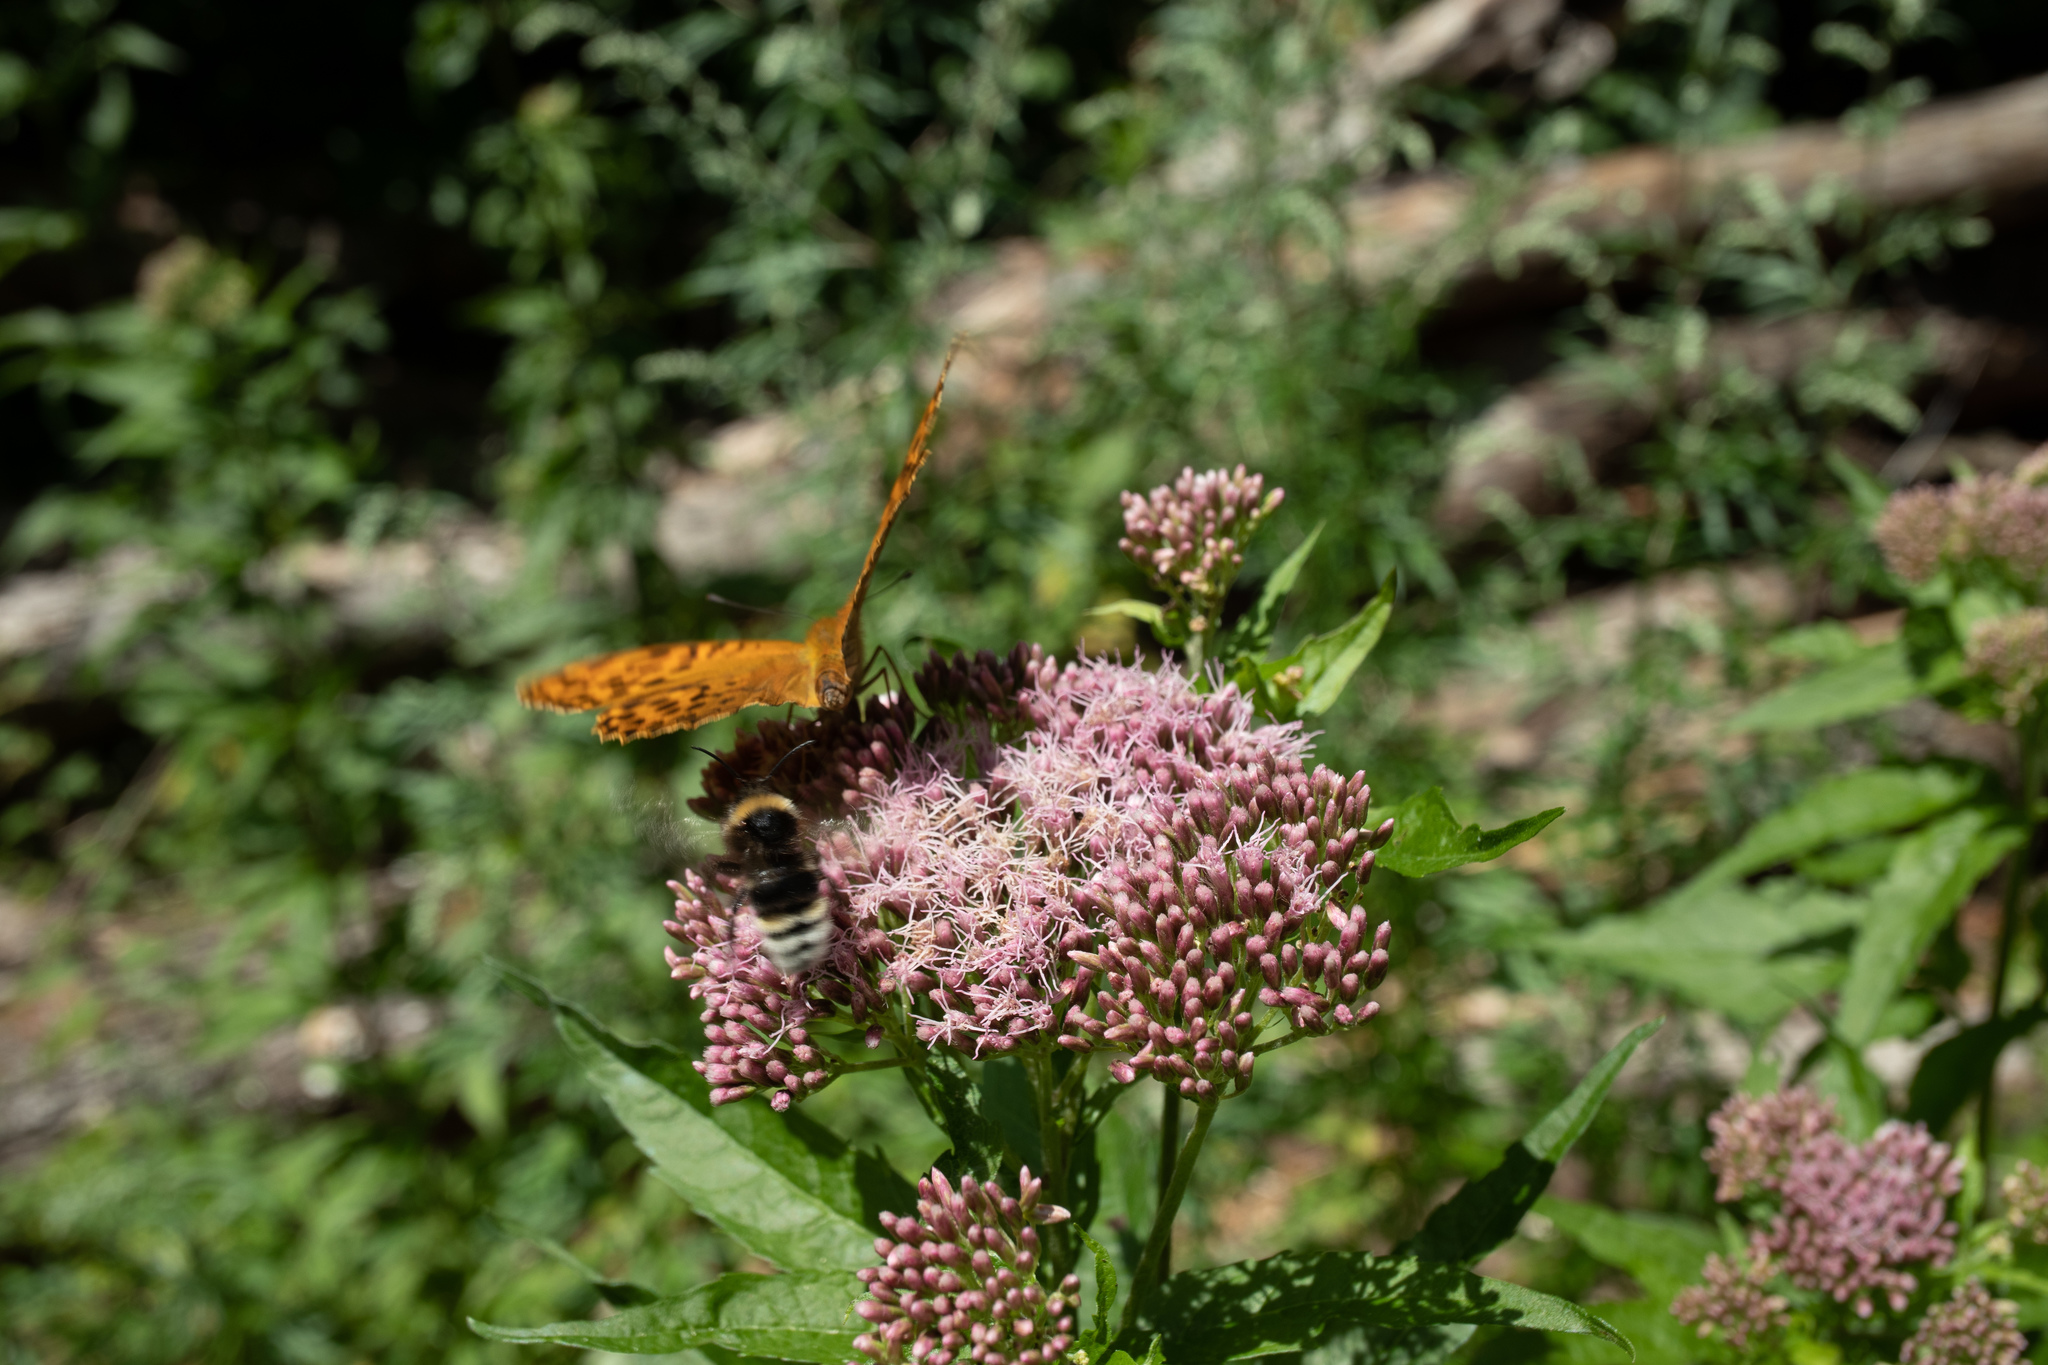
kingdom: Animalia
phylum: Arthropoda
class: Insecta
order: Lepidoptera
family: Nymphalidae
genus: Argynnis
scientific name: Argynnis paphia
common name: Silver-washed fritillary
